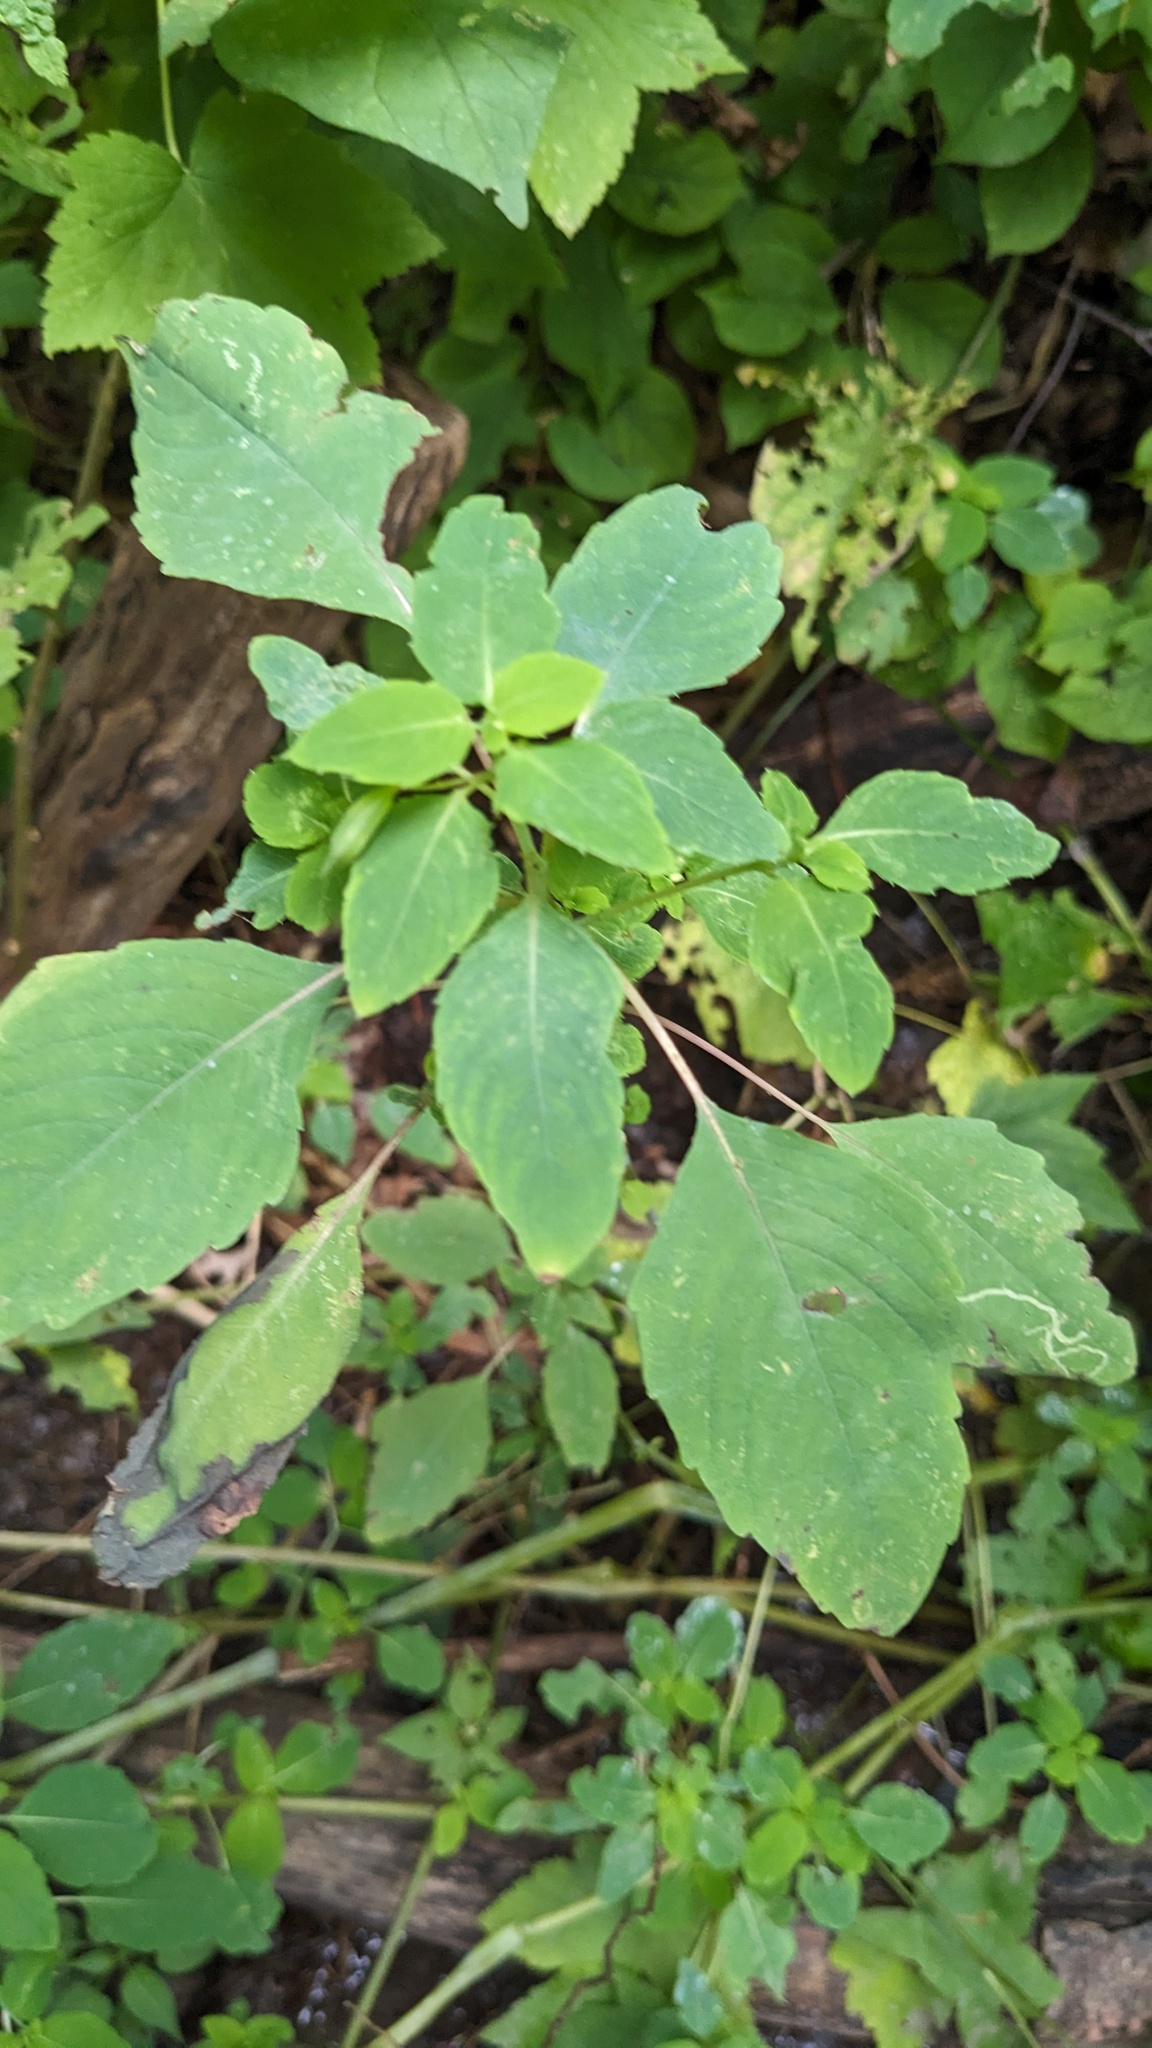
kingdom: Plantae
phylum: Tracheophyta
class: Magnoliopsida
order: Ericales
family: Balsaminaceae
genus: Impatiens
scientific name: Impatiens capensis
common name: Orange balsam
